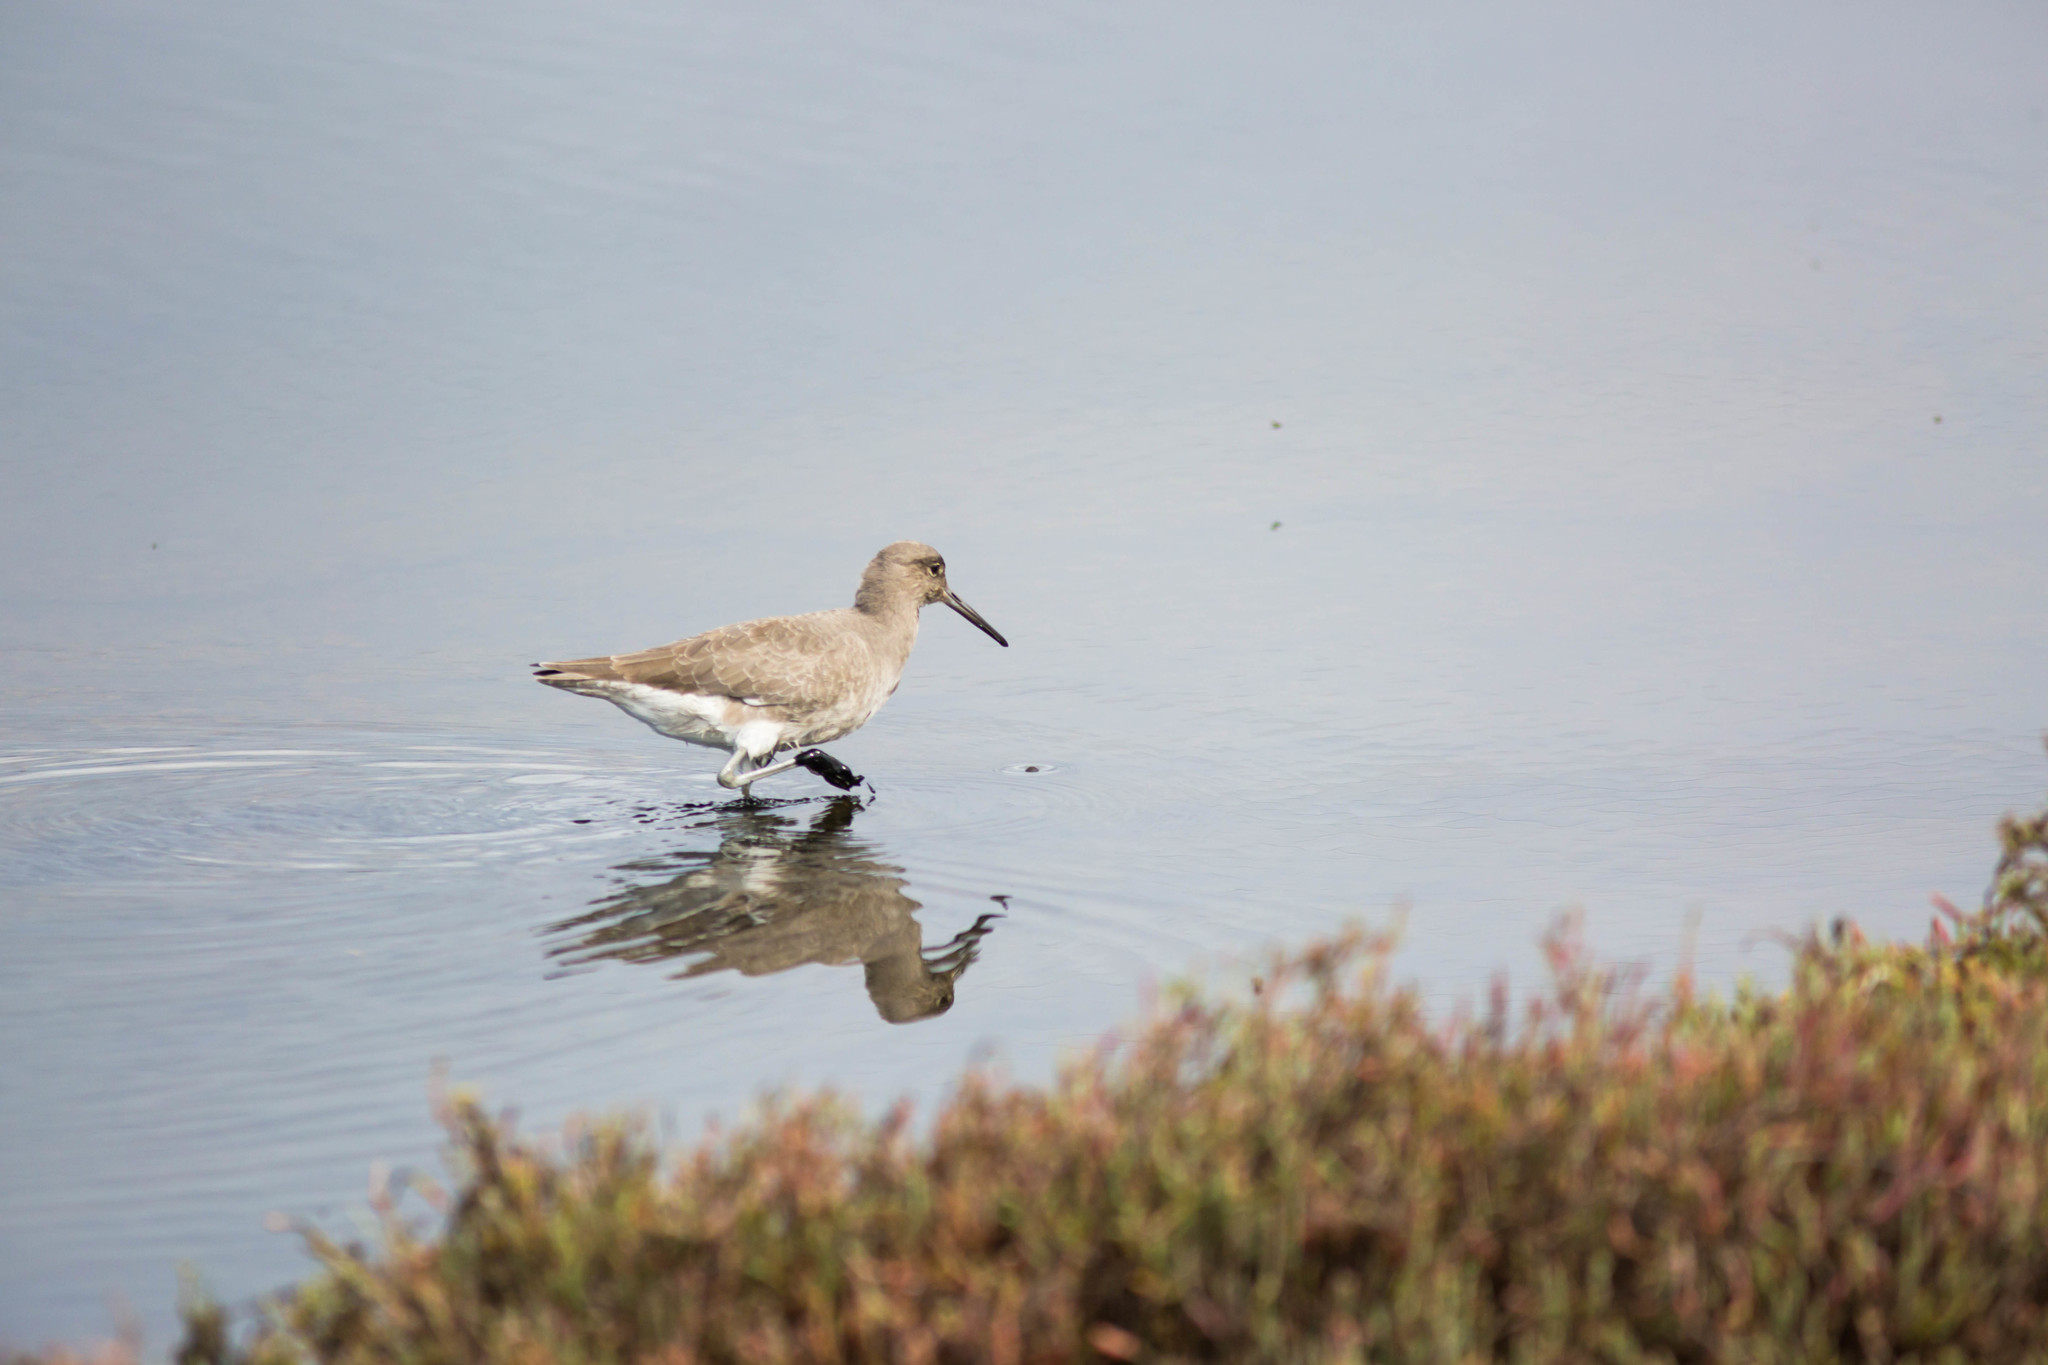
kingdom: Animalia
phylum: Chordata
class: Aves
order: Charadriiformes
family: Scolopacidae
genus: Tringa
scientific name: Tringa semipalmata
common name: Willet
